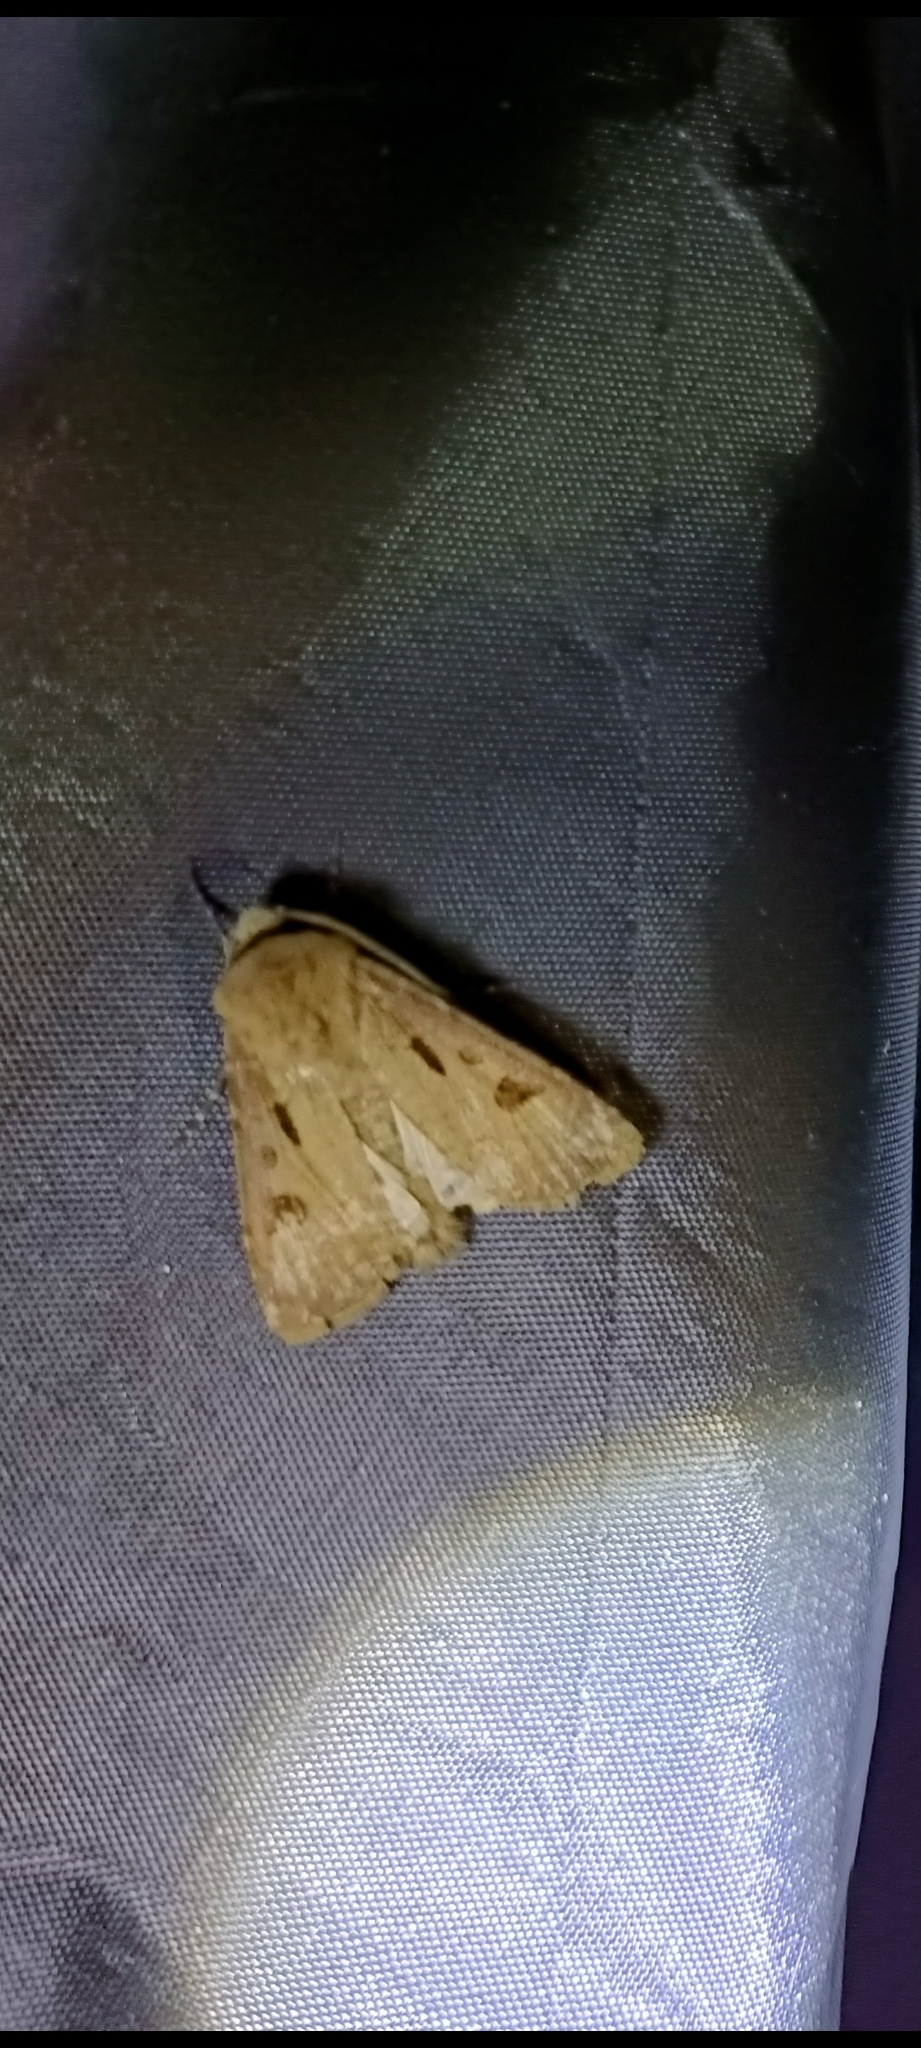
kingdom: Animalia
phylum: Arthropoda
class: Insecta
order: Lepidoptera
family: Noctuidae
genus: Agrotis
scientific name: Agrotis exclamationis
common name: Heart and dart
